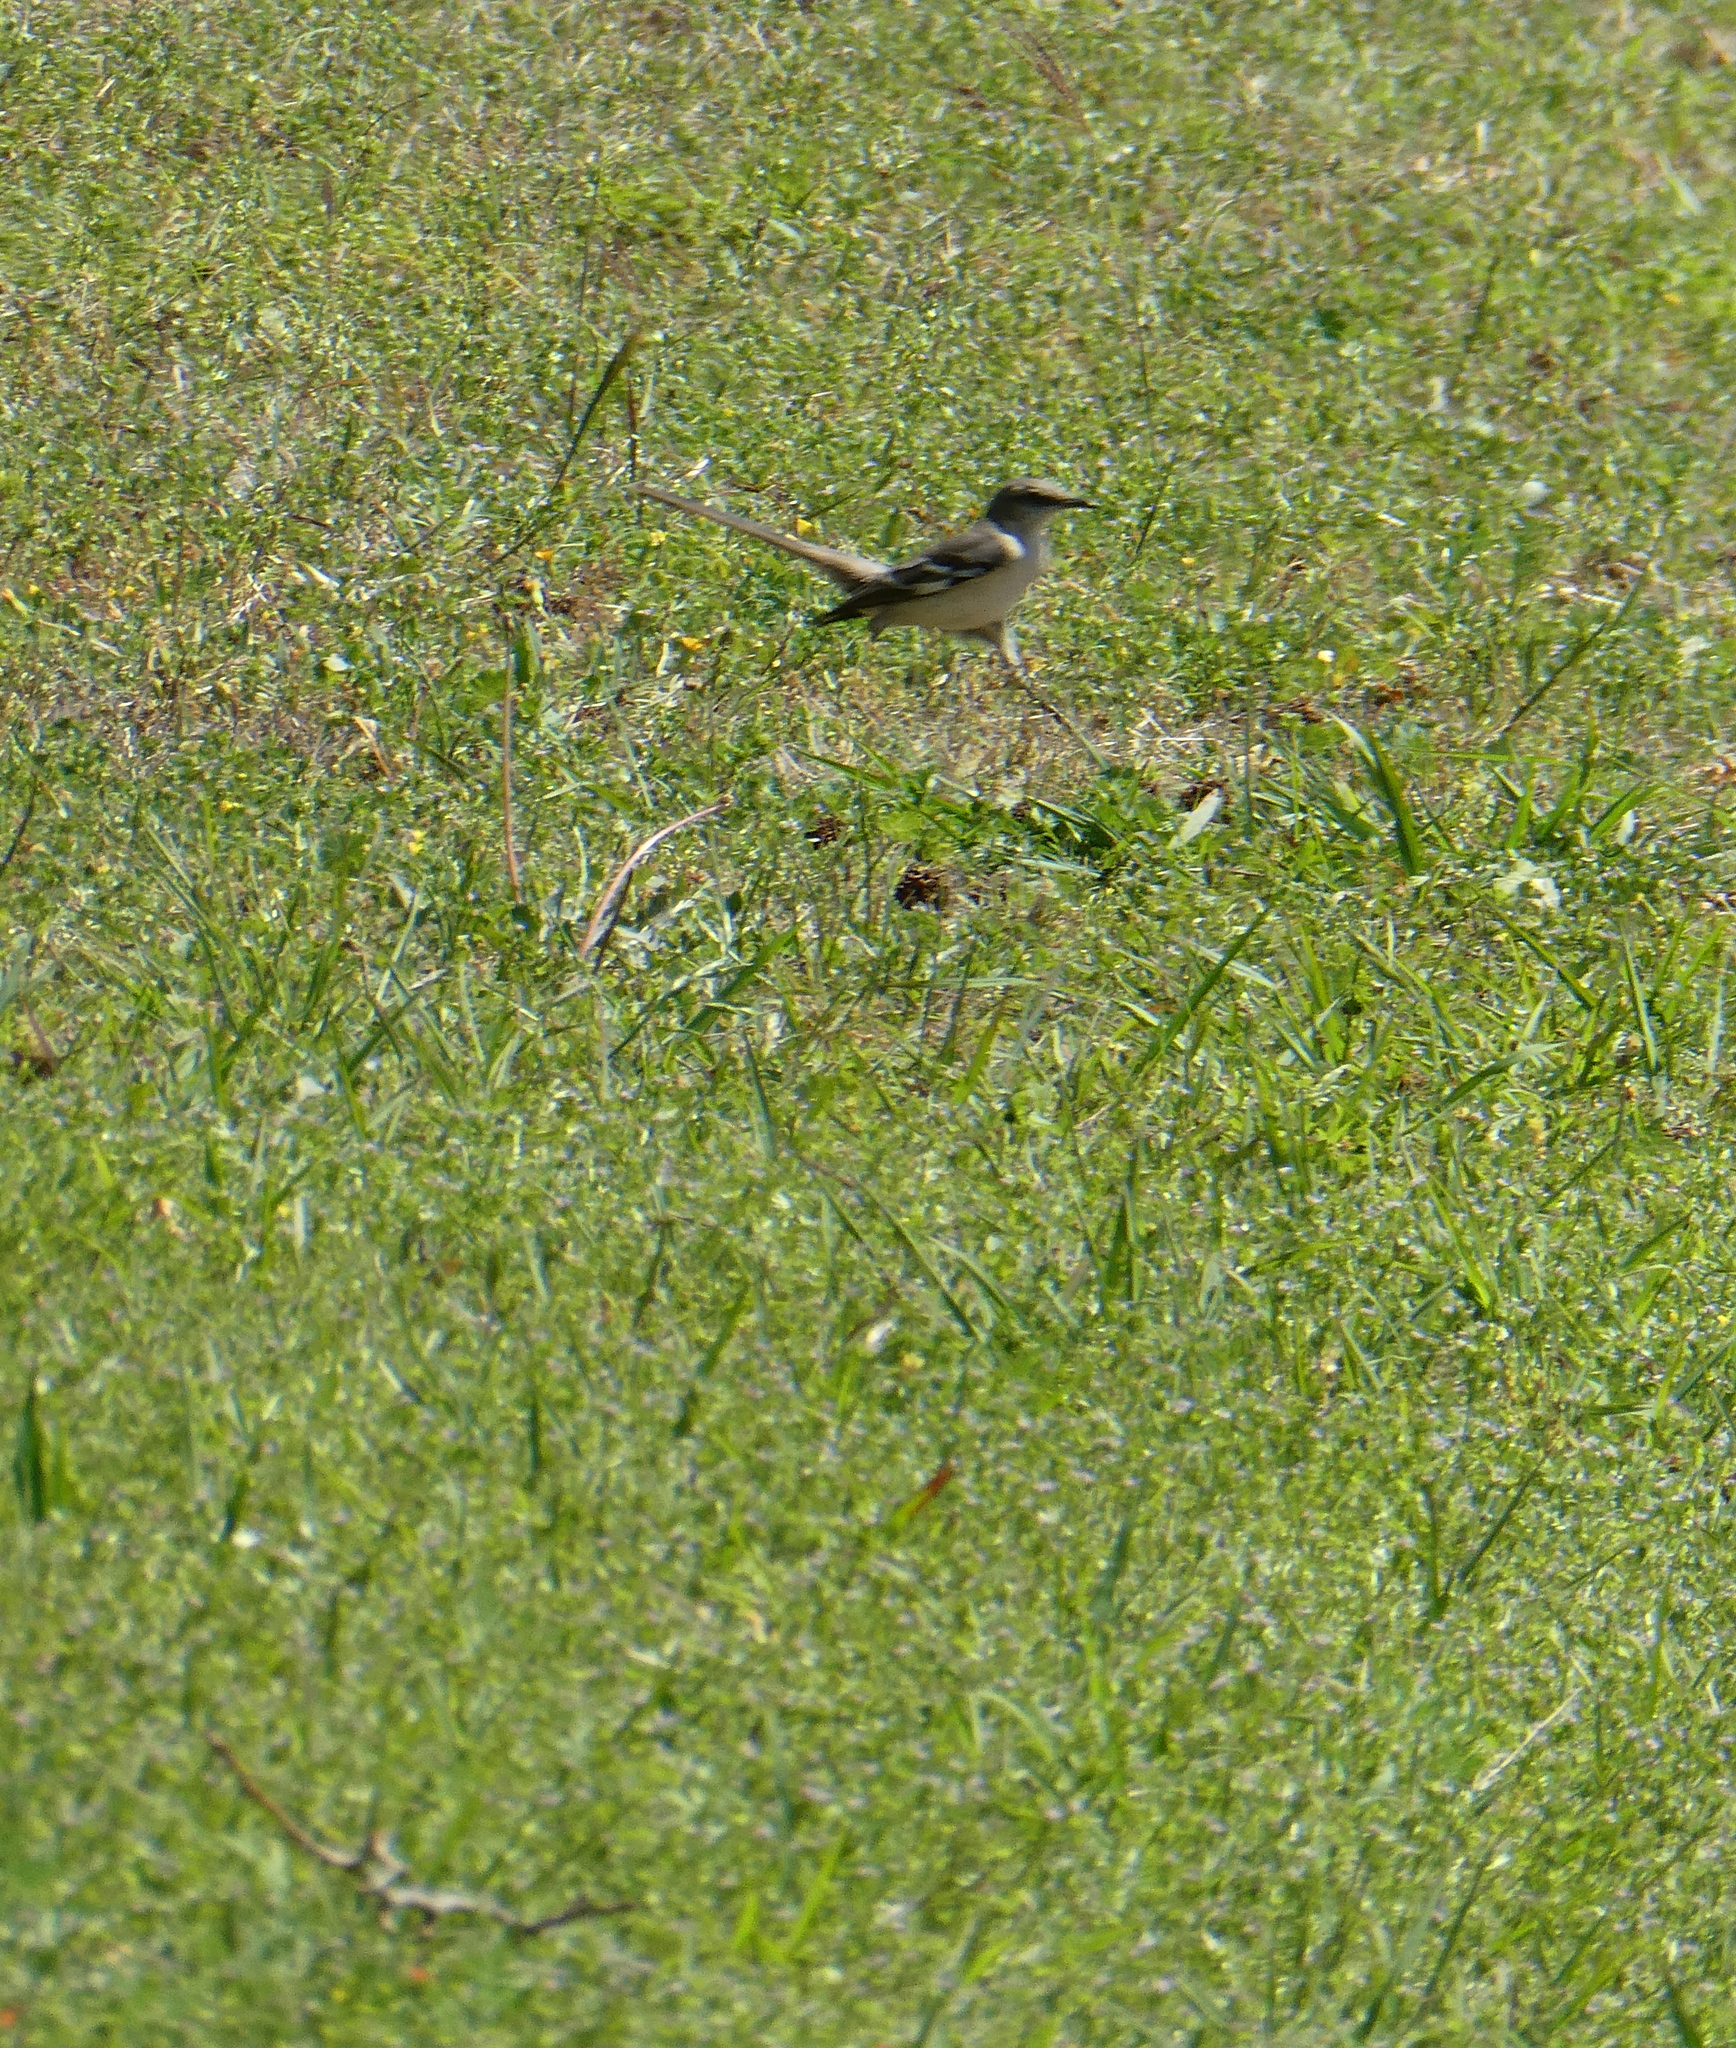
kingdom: Animalia
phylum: Chordata
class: Aves
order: Passeriformes
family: Mimidae
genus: Mimus
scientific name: Mimus polyglottos
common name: Northern mockingbird
